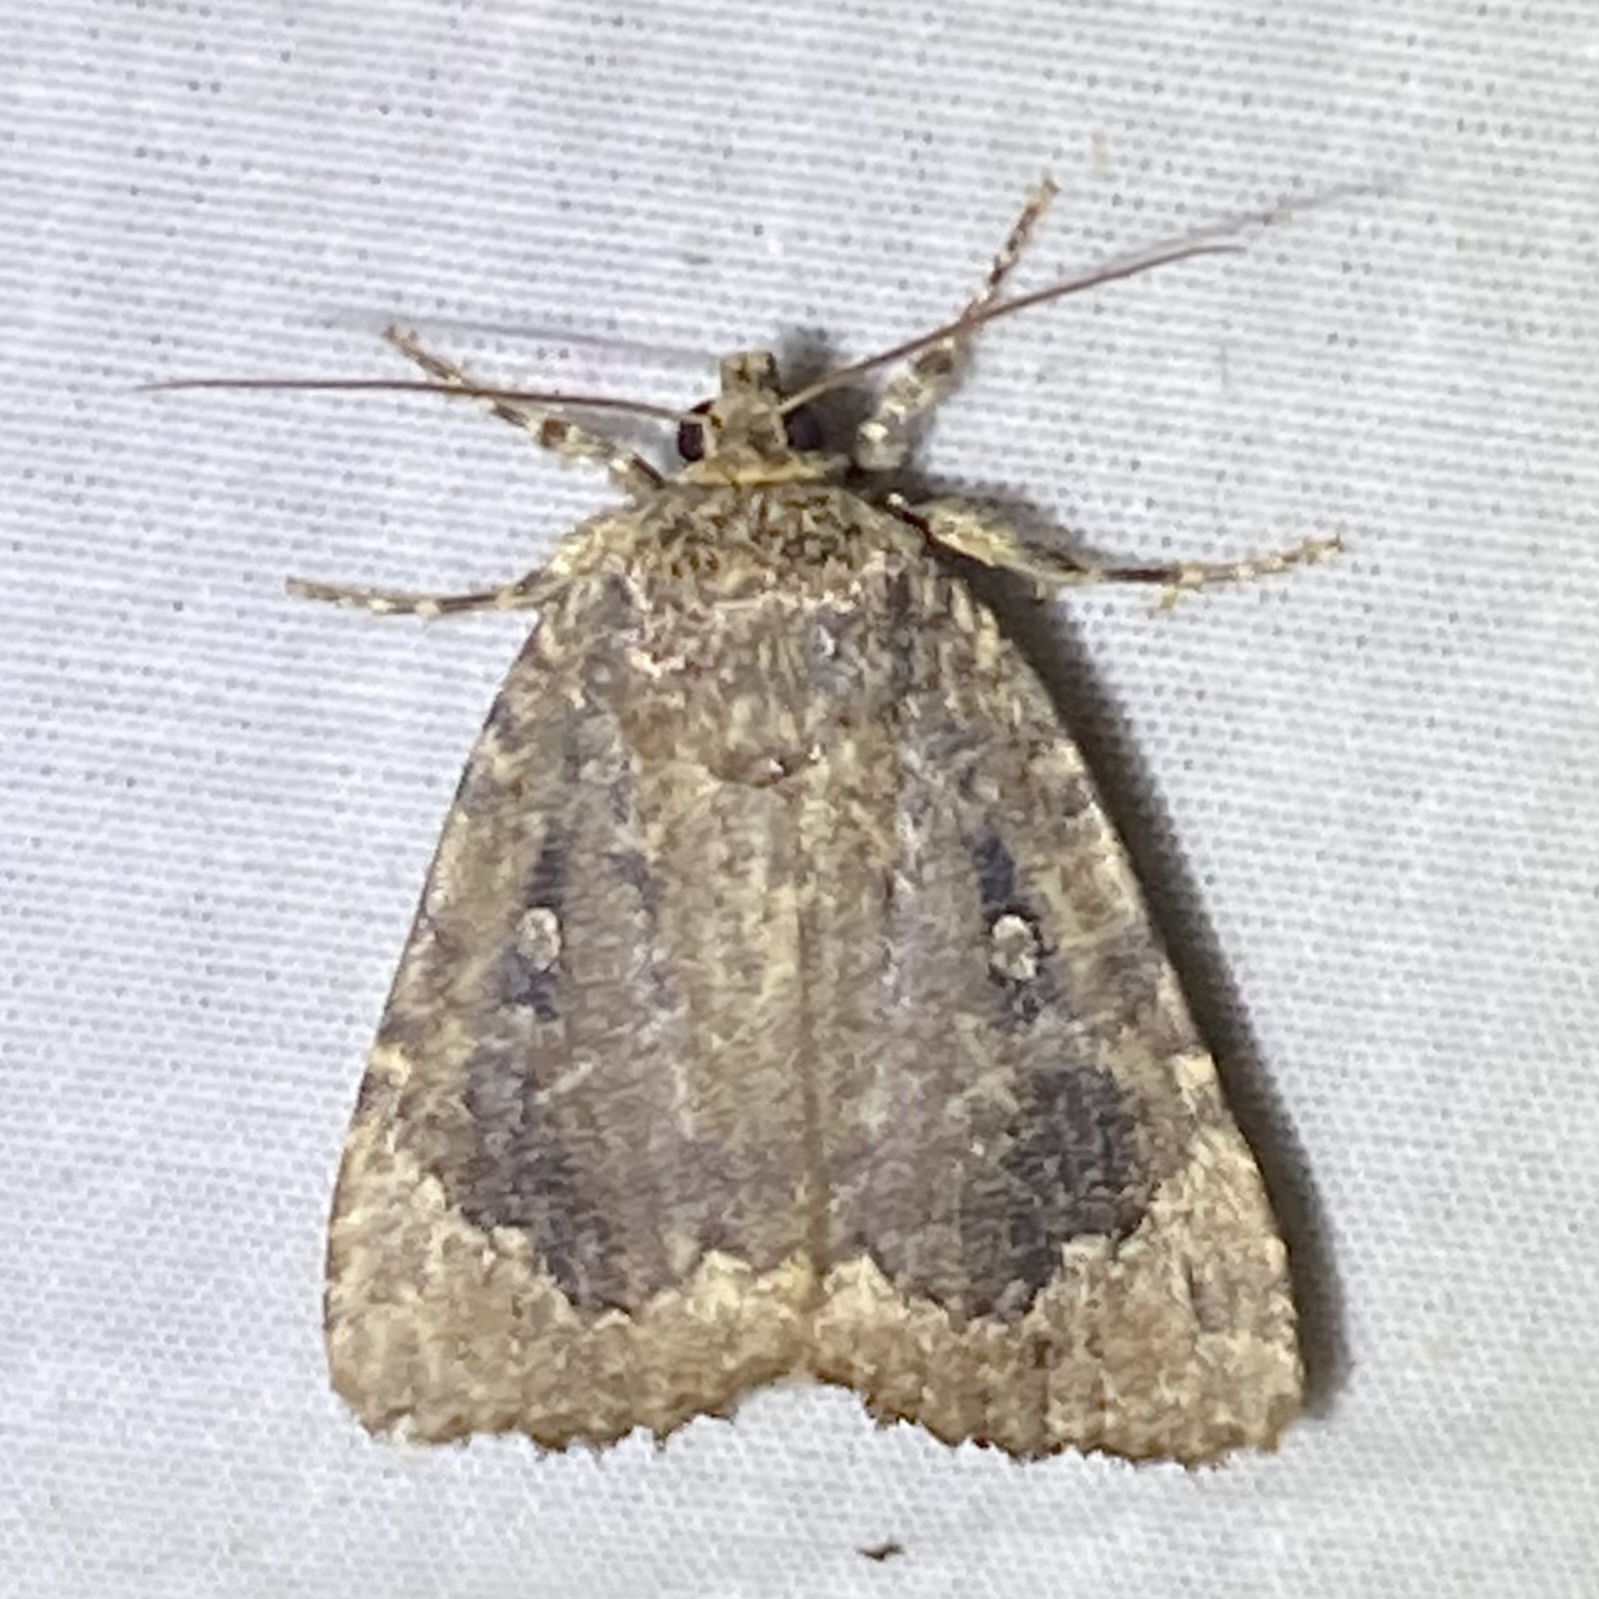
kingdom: Animalia
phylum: Arthropoda
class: Insecta
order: Lepidoptera
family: Noctuidae
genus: Amphipyra
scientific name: Amphipyra pyramidoides
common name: American copper underwing
